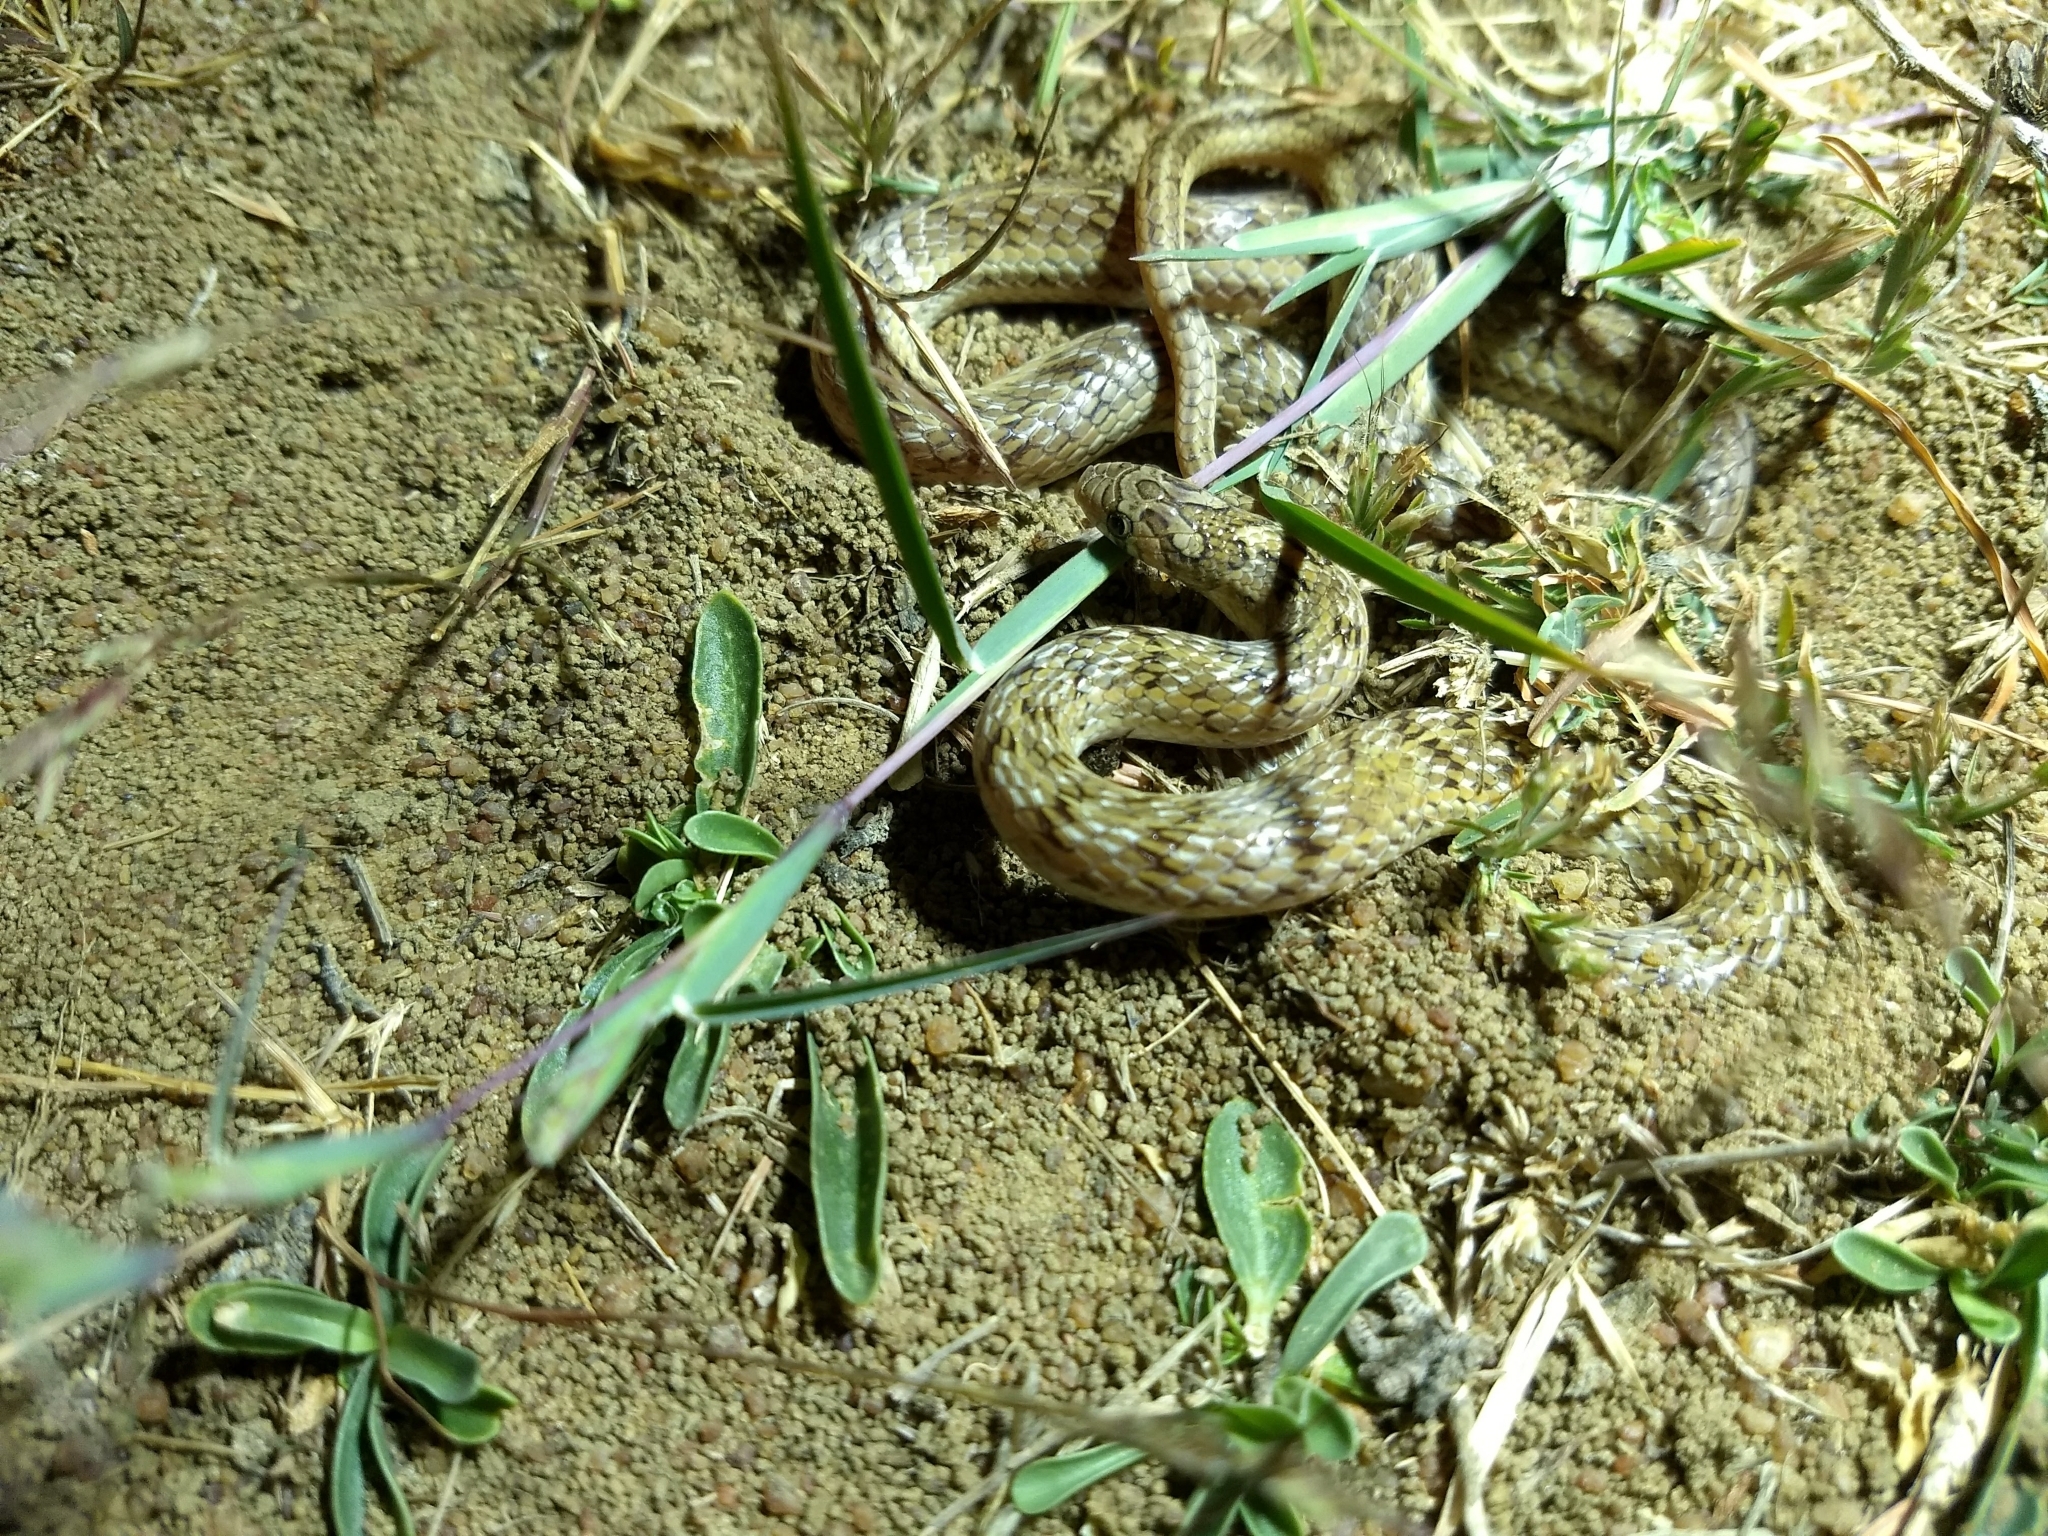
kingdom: Animalia
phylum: Chordata
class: Squamata
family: Colubridae
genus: Oligodon
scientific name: Oligodon taeniolatus
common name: Loos snake
